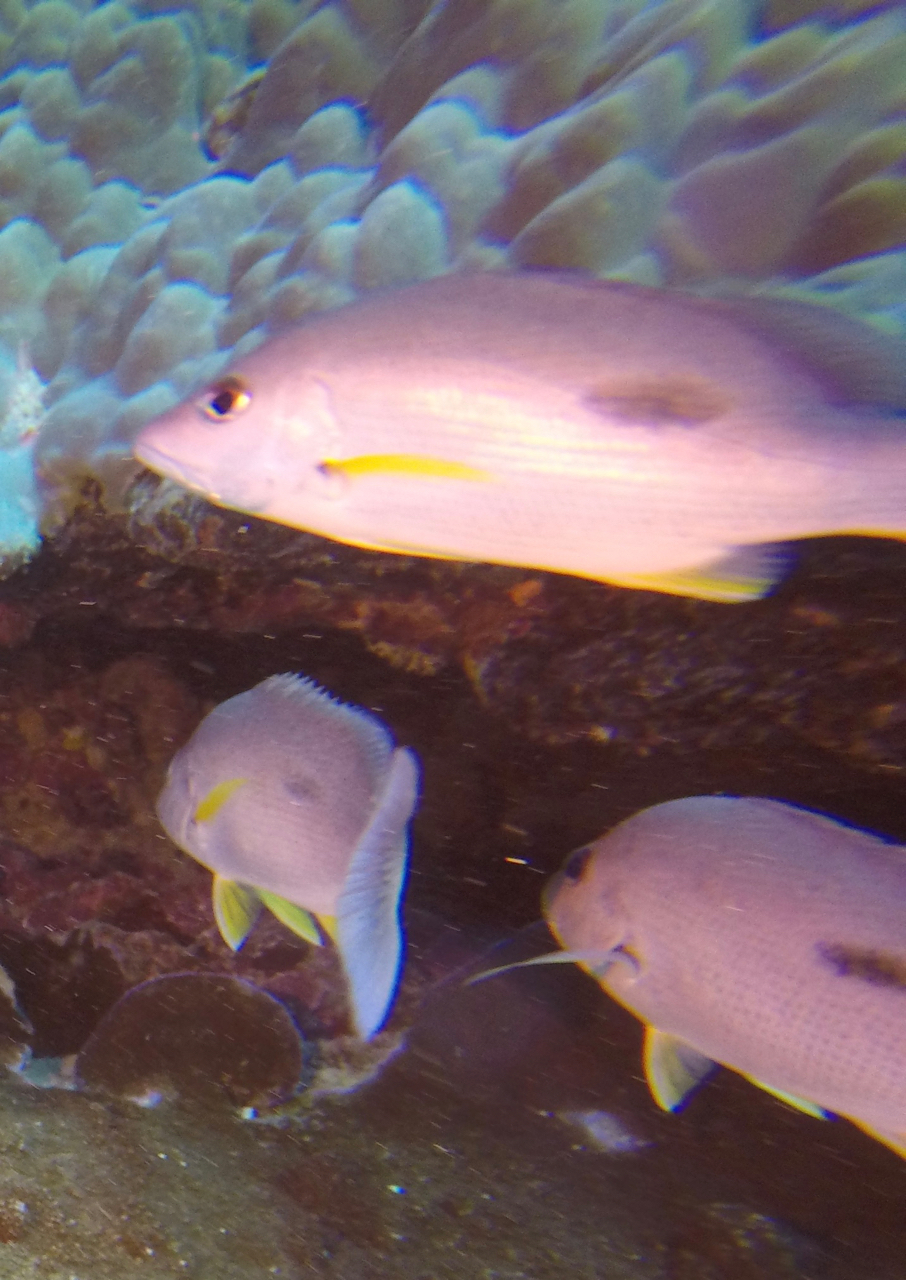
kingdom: Animalia
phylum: Chordata
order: Perciformes
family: Lutjanidae
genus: Lutjanus
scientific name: Lutjanus russellii
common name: Russell's snapper
